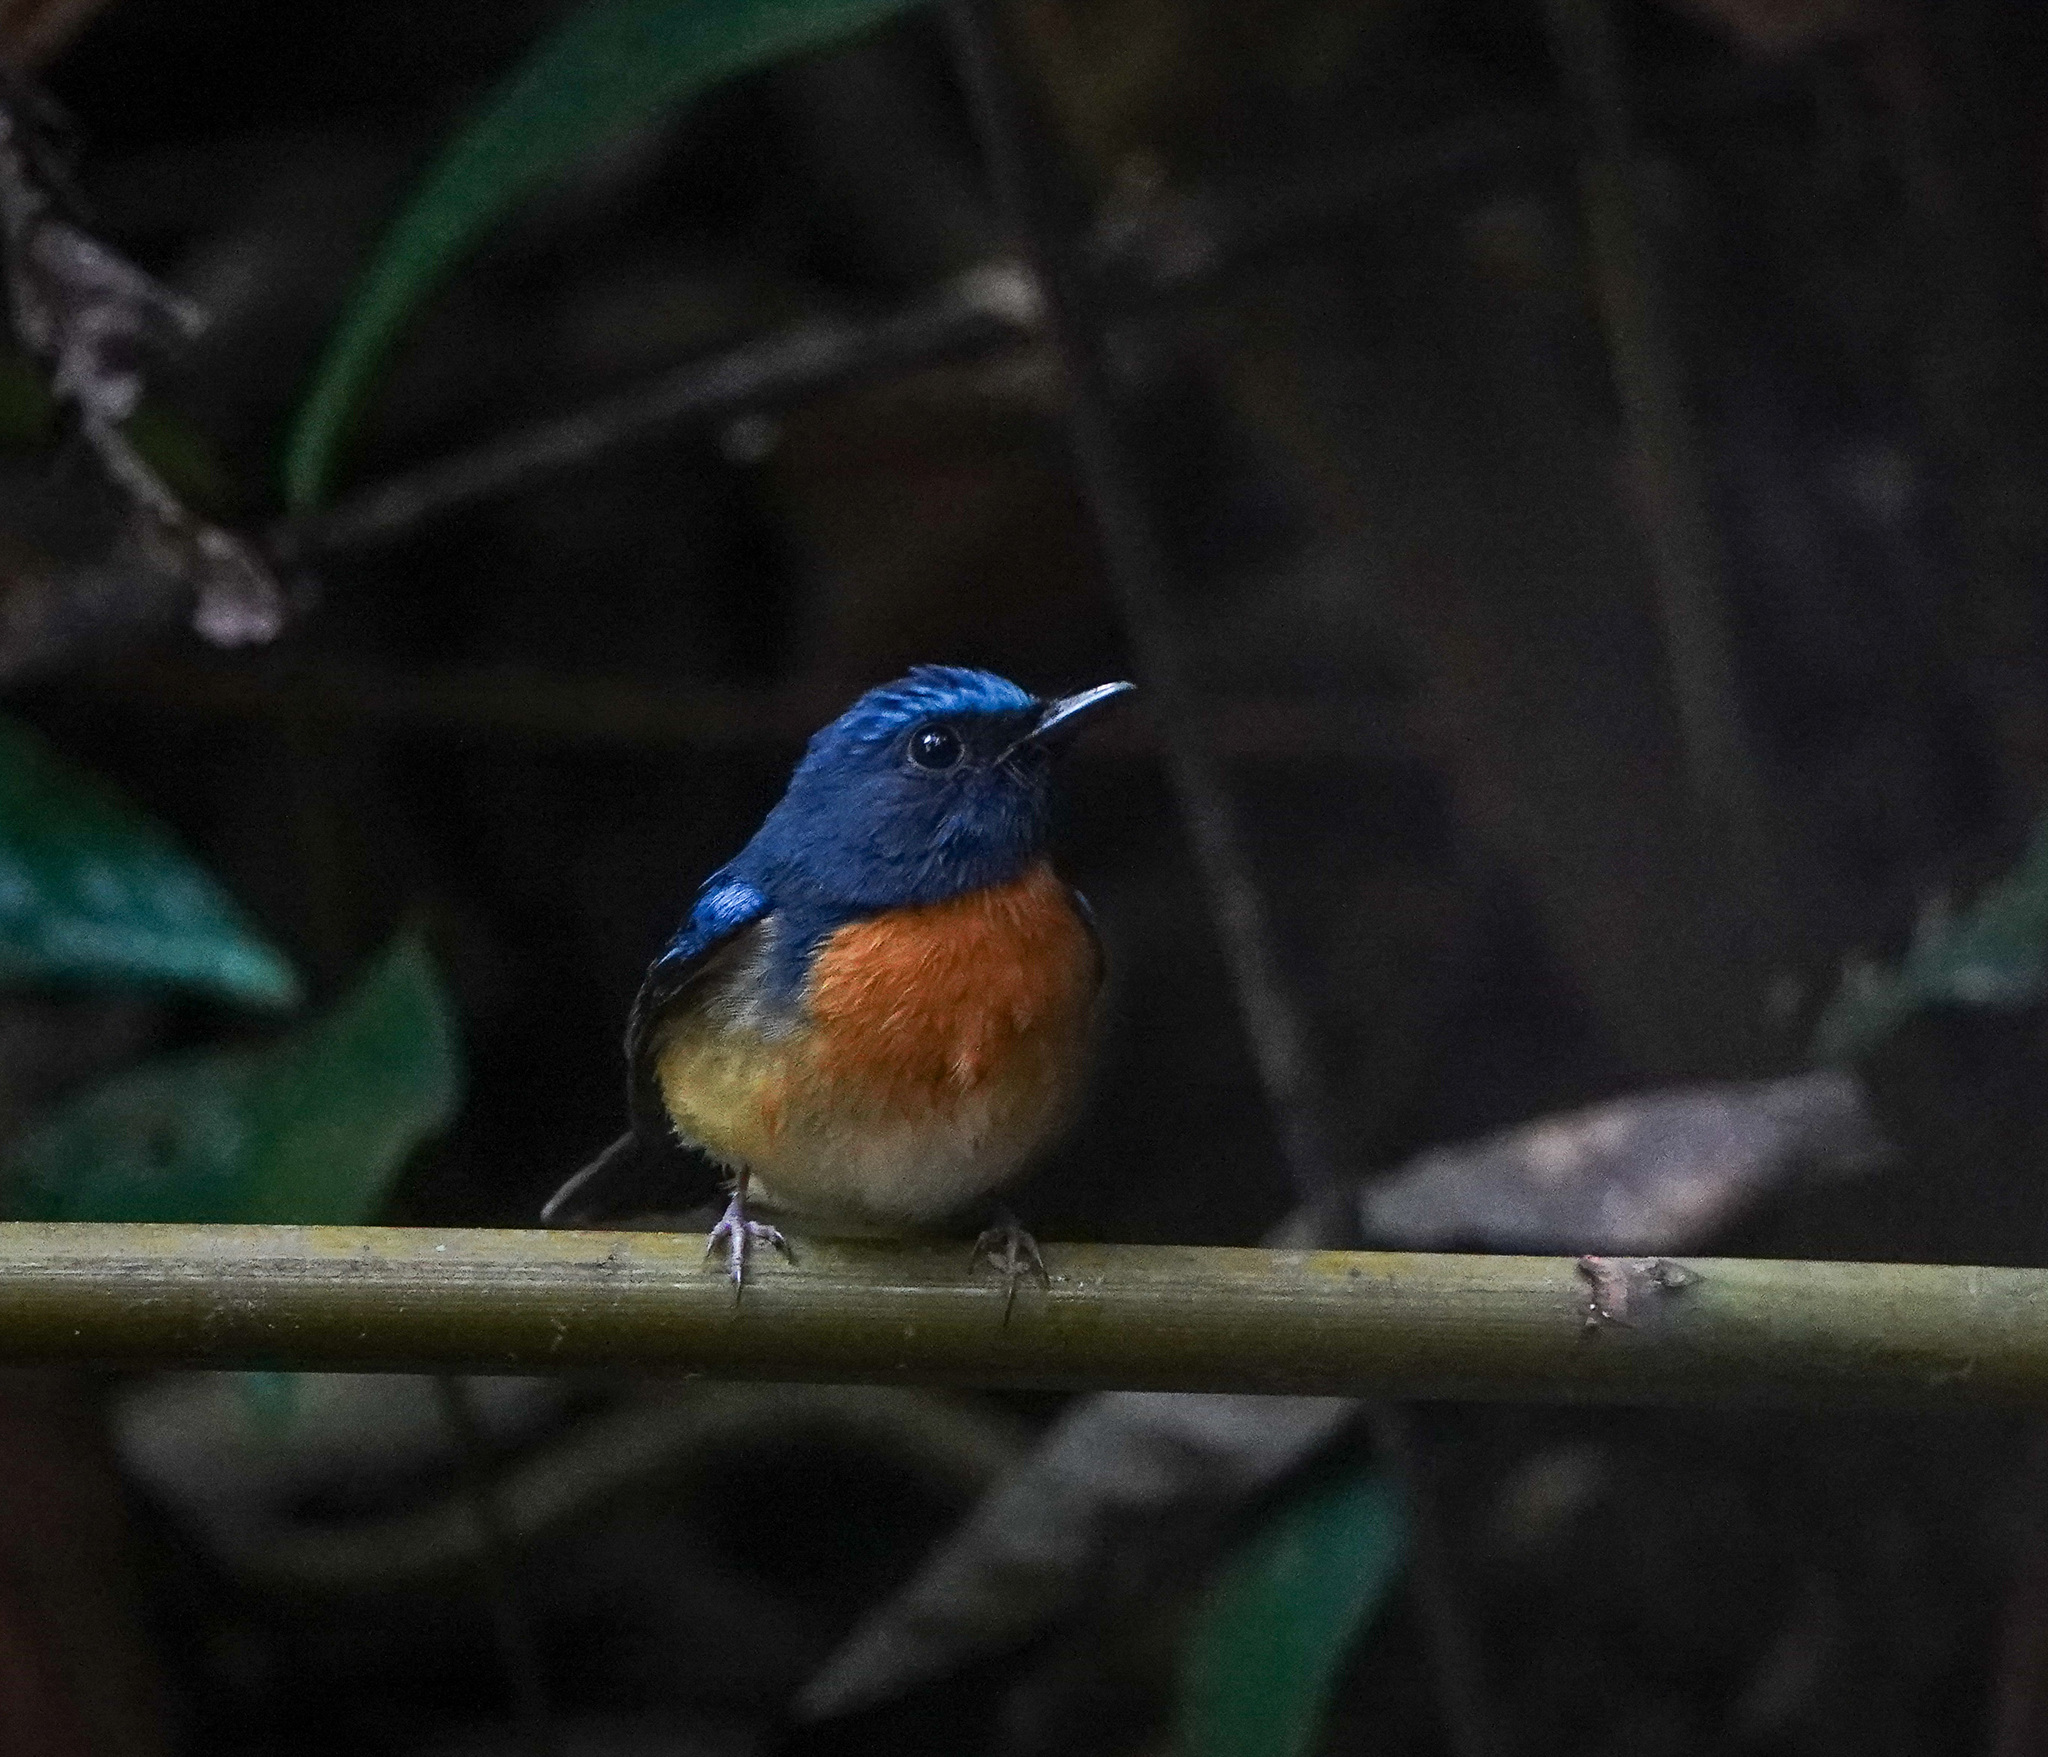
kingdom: Animalia
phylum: Chordata
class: Aves
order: Passeriformes
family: Muscicapidae
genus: Cyornis
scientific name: Cyornis rubeculoides
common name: Blue-throated blue flycatcher
